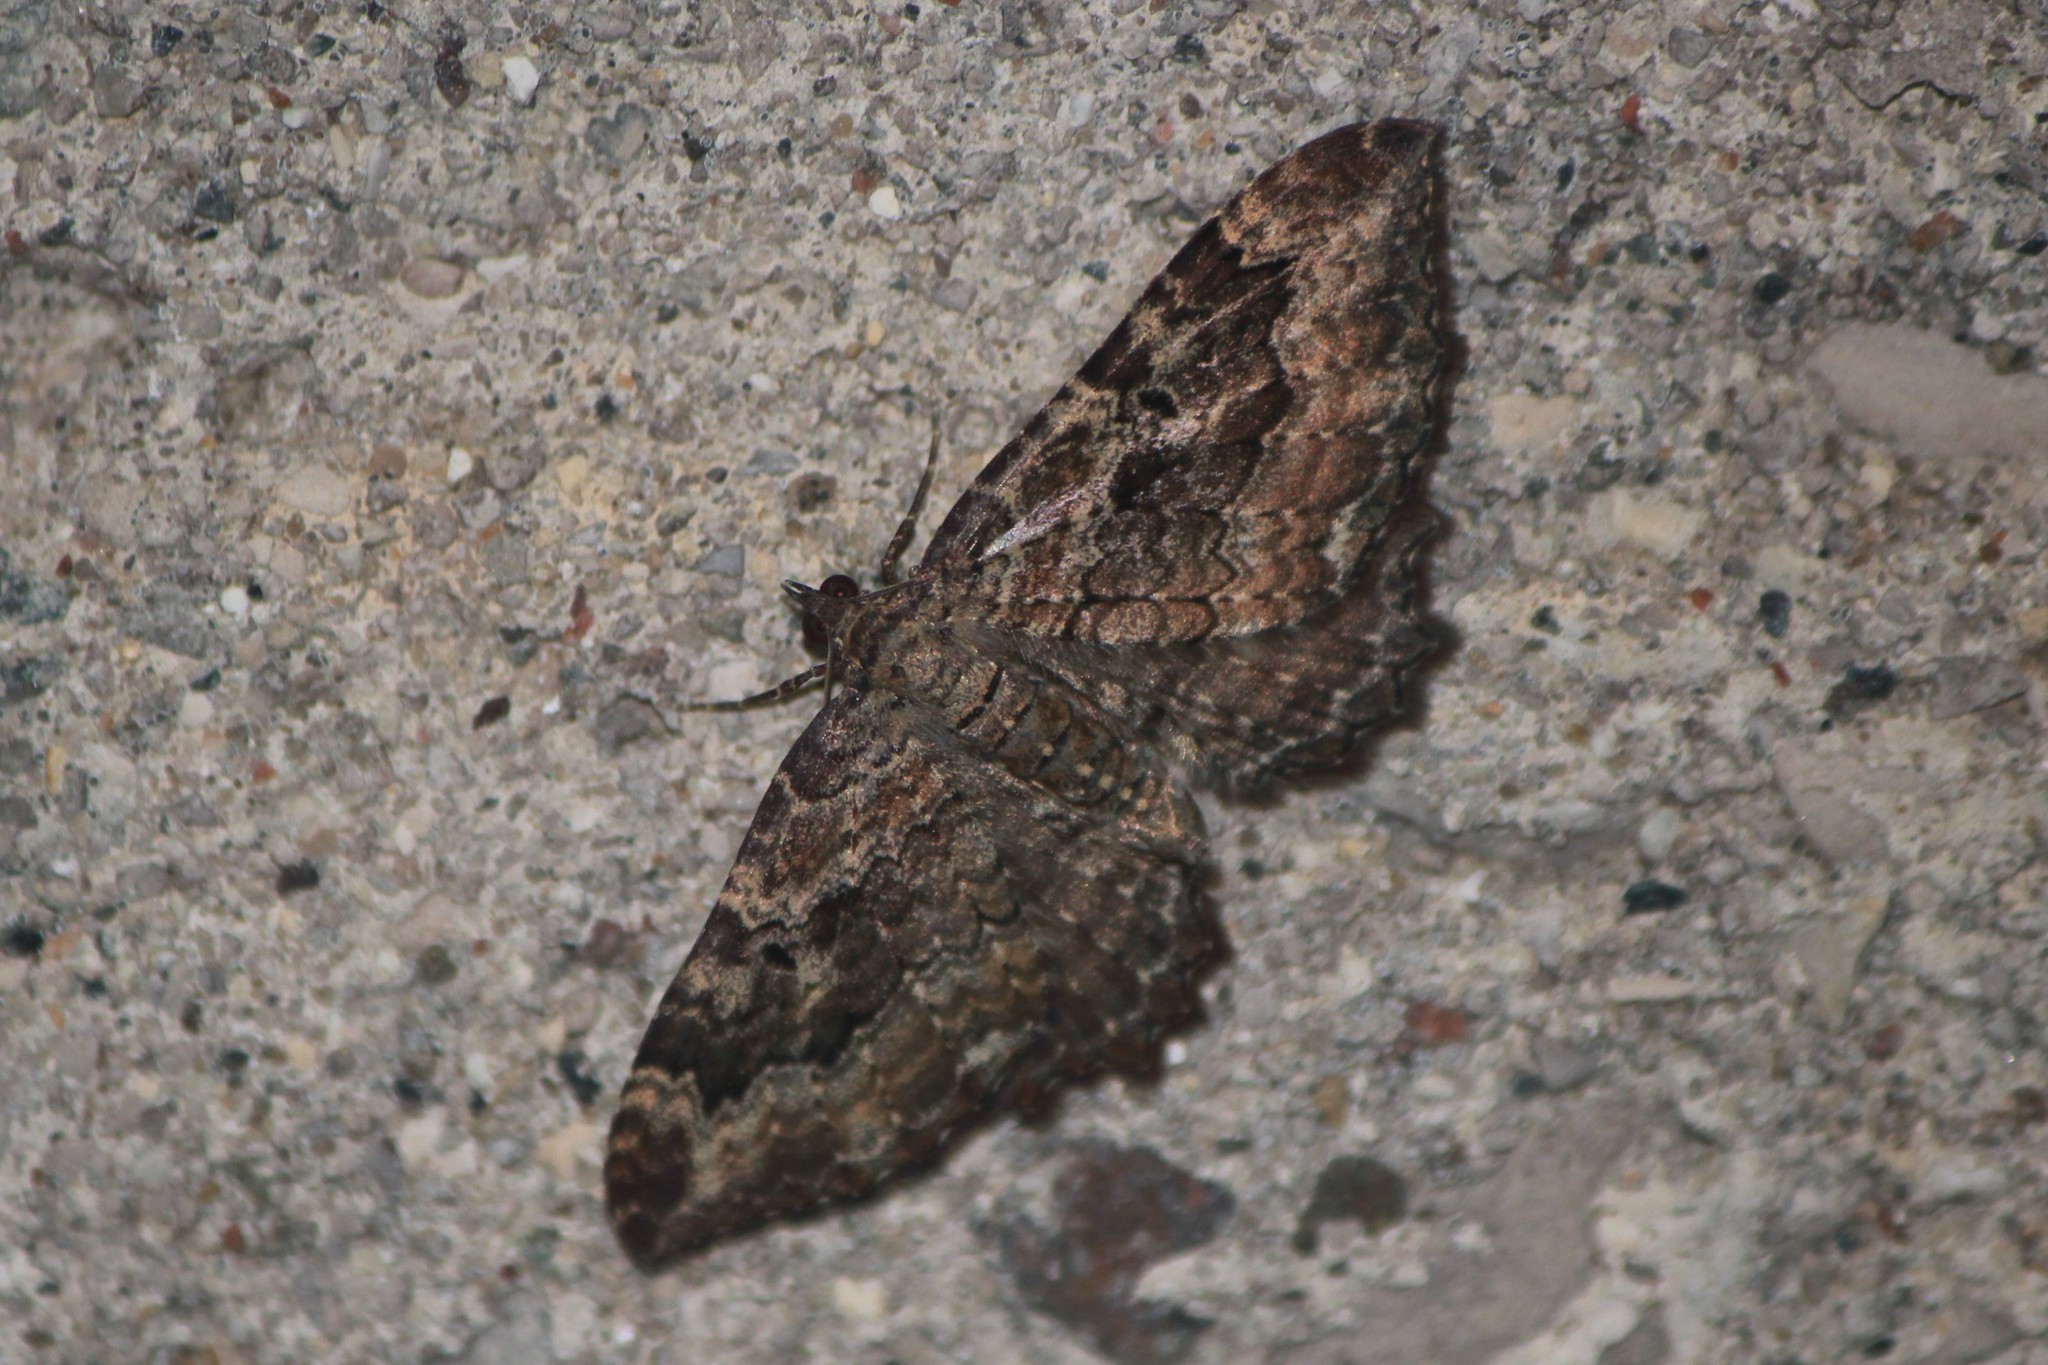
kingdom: Animalia
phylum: Arthropoda
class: Insecta
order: Lepidoptera
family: Geometridae
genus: Rheumaptera
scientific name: Rheumaptera
